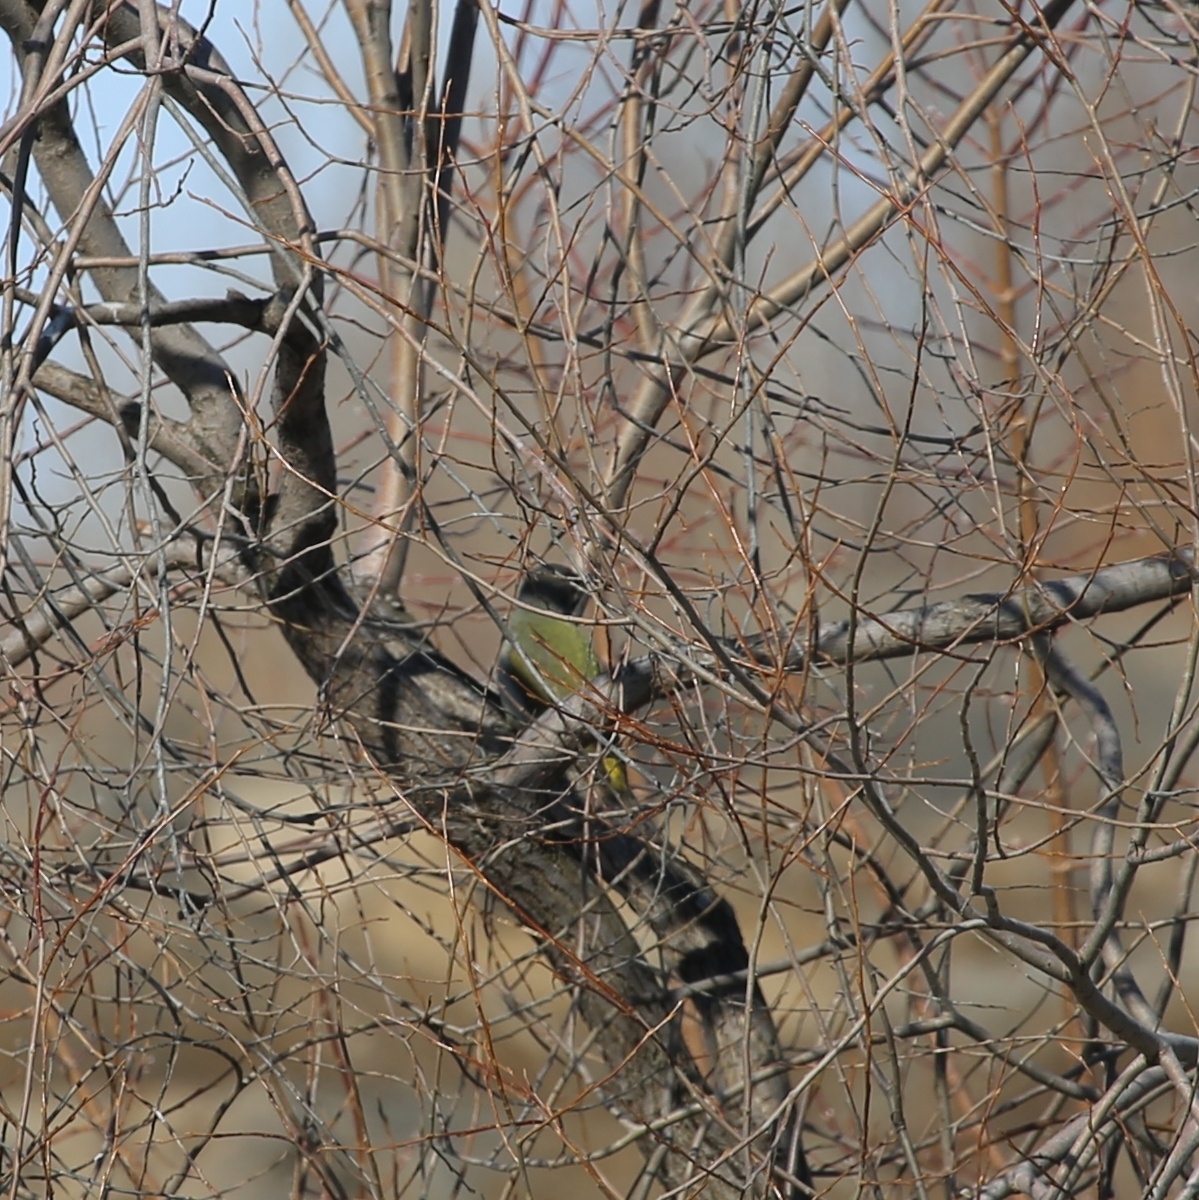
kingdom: Animalia
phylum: Chordata
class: Aves
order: Piciformes
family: Picidae
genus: Picus
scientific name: Picus canus
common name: Grey-headed woodpecker
